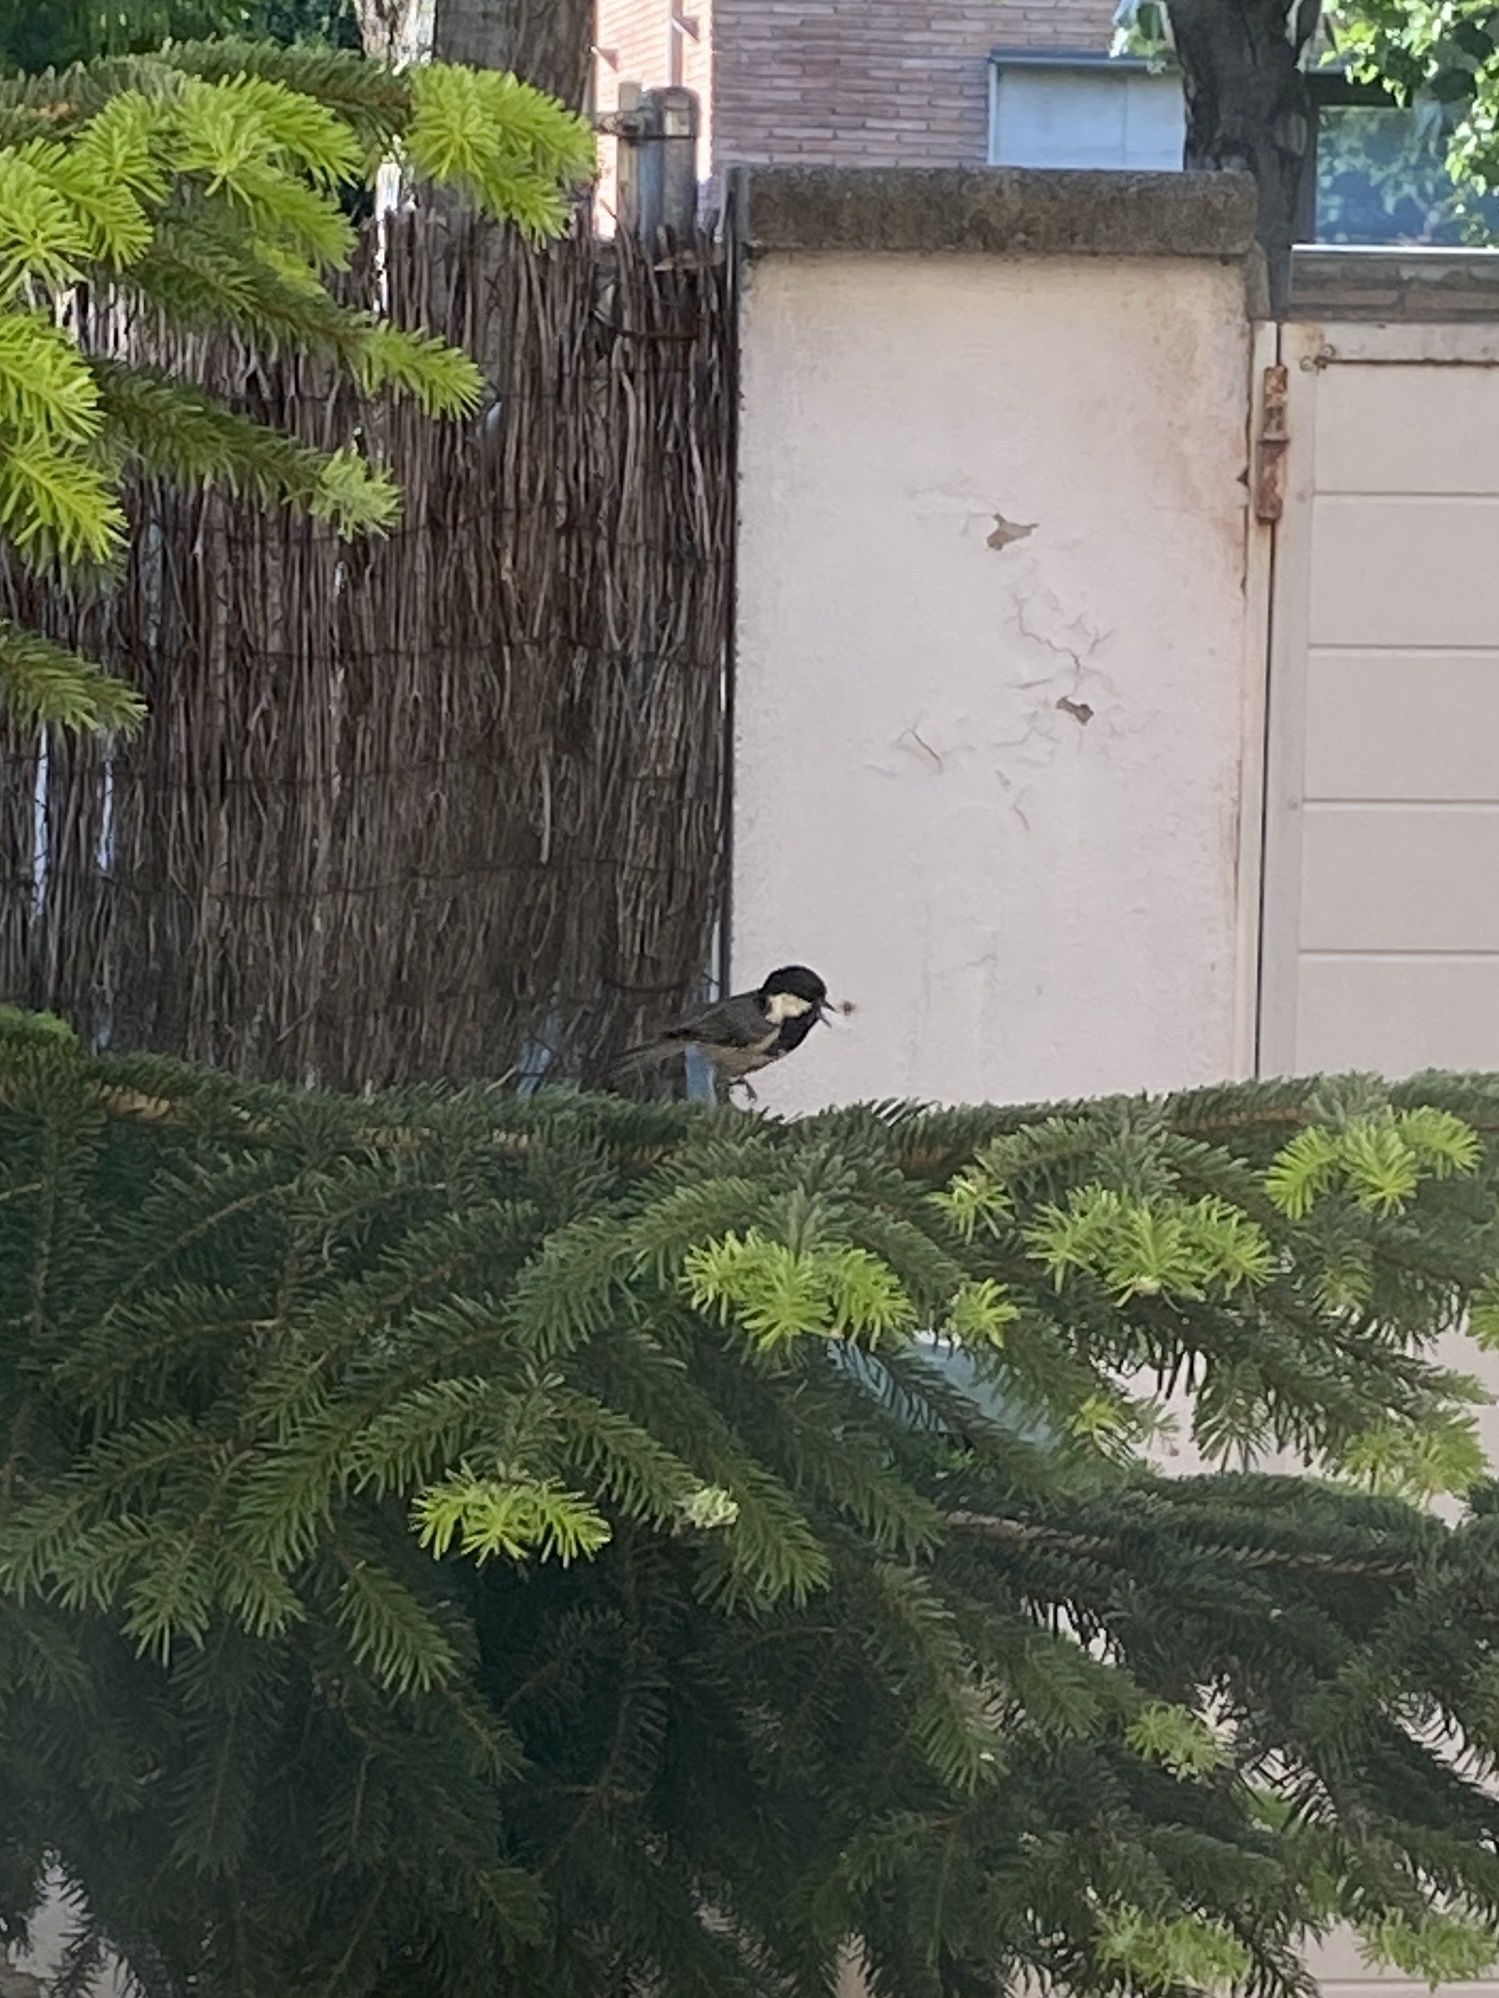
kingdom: Animalia
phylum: Chordata
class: Aves
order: Passeriformes
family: Paridae
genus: Periparus
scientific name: Periparus ater
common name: Coal tit
